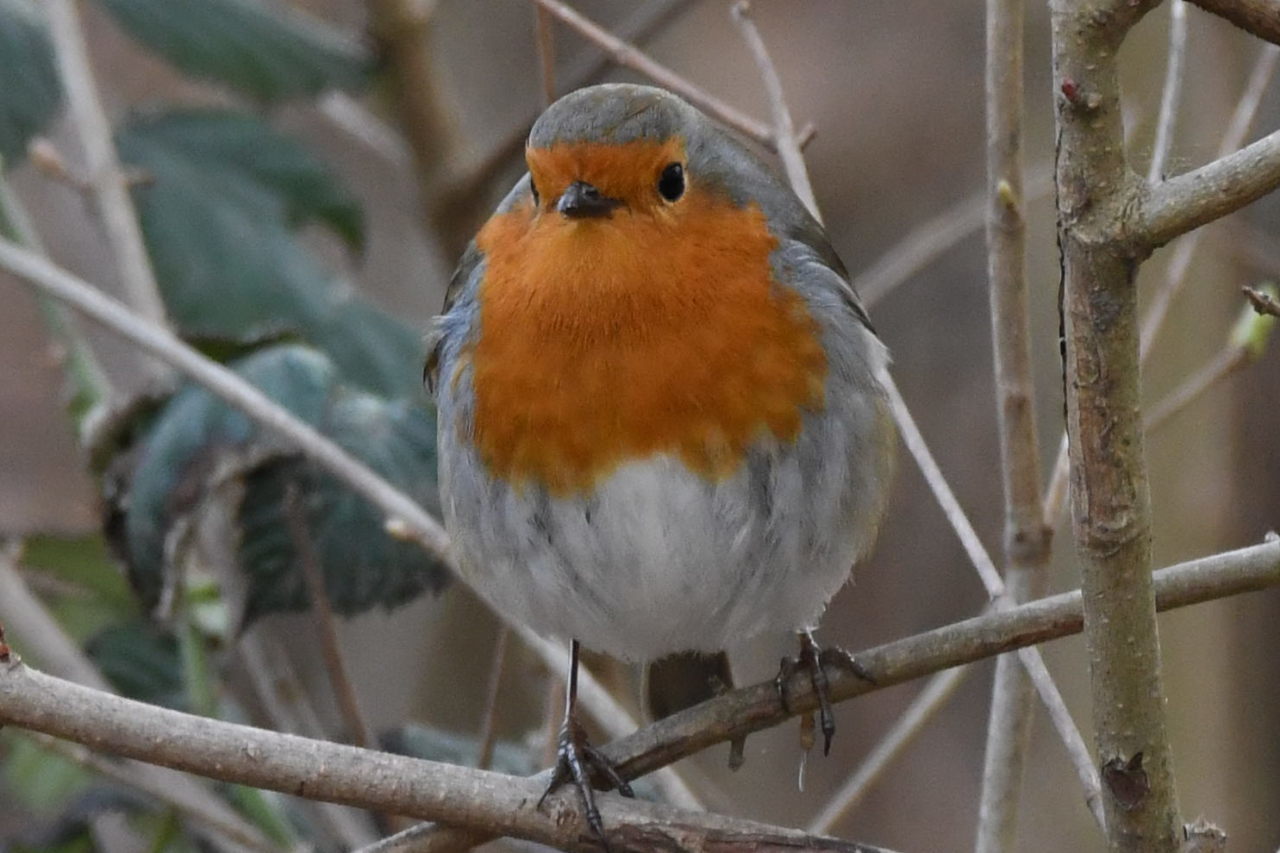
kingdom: Animalia
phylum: Chordata
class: Aves
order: Passeriformes
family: Muscicapidae
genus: Erithacus
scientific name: Erithacus rubecula
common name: European robin
